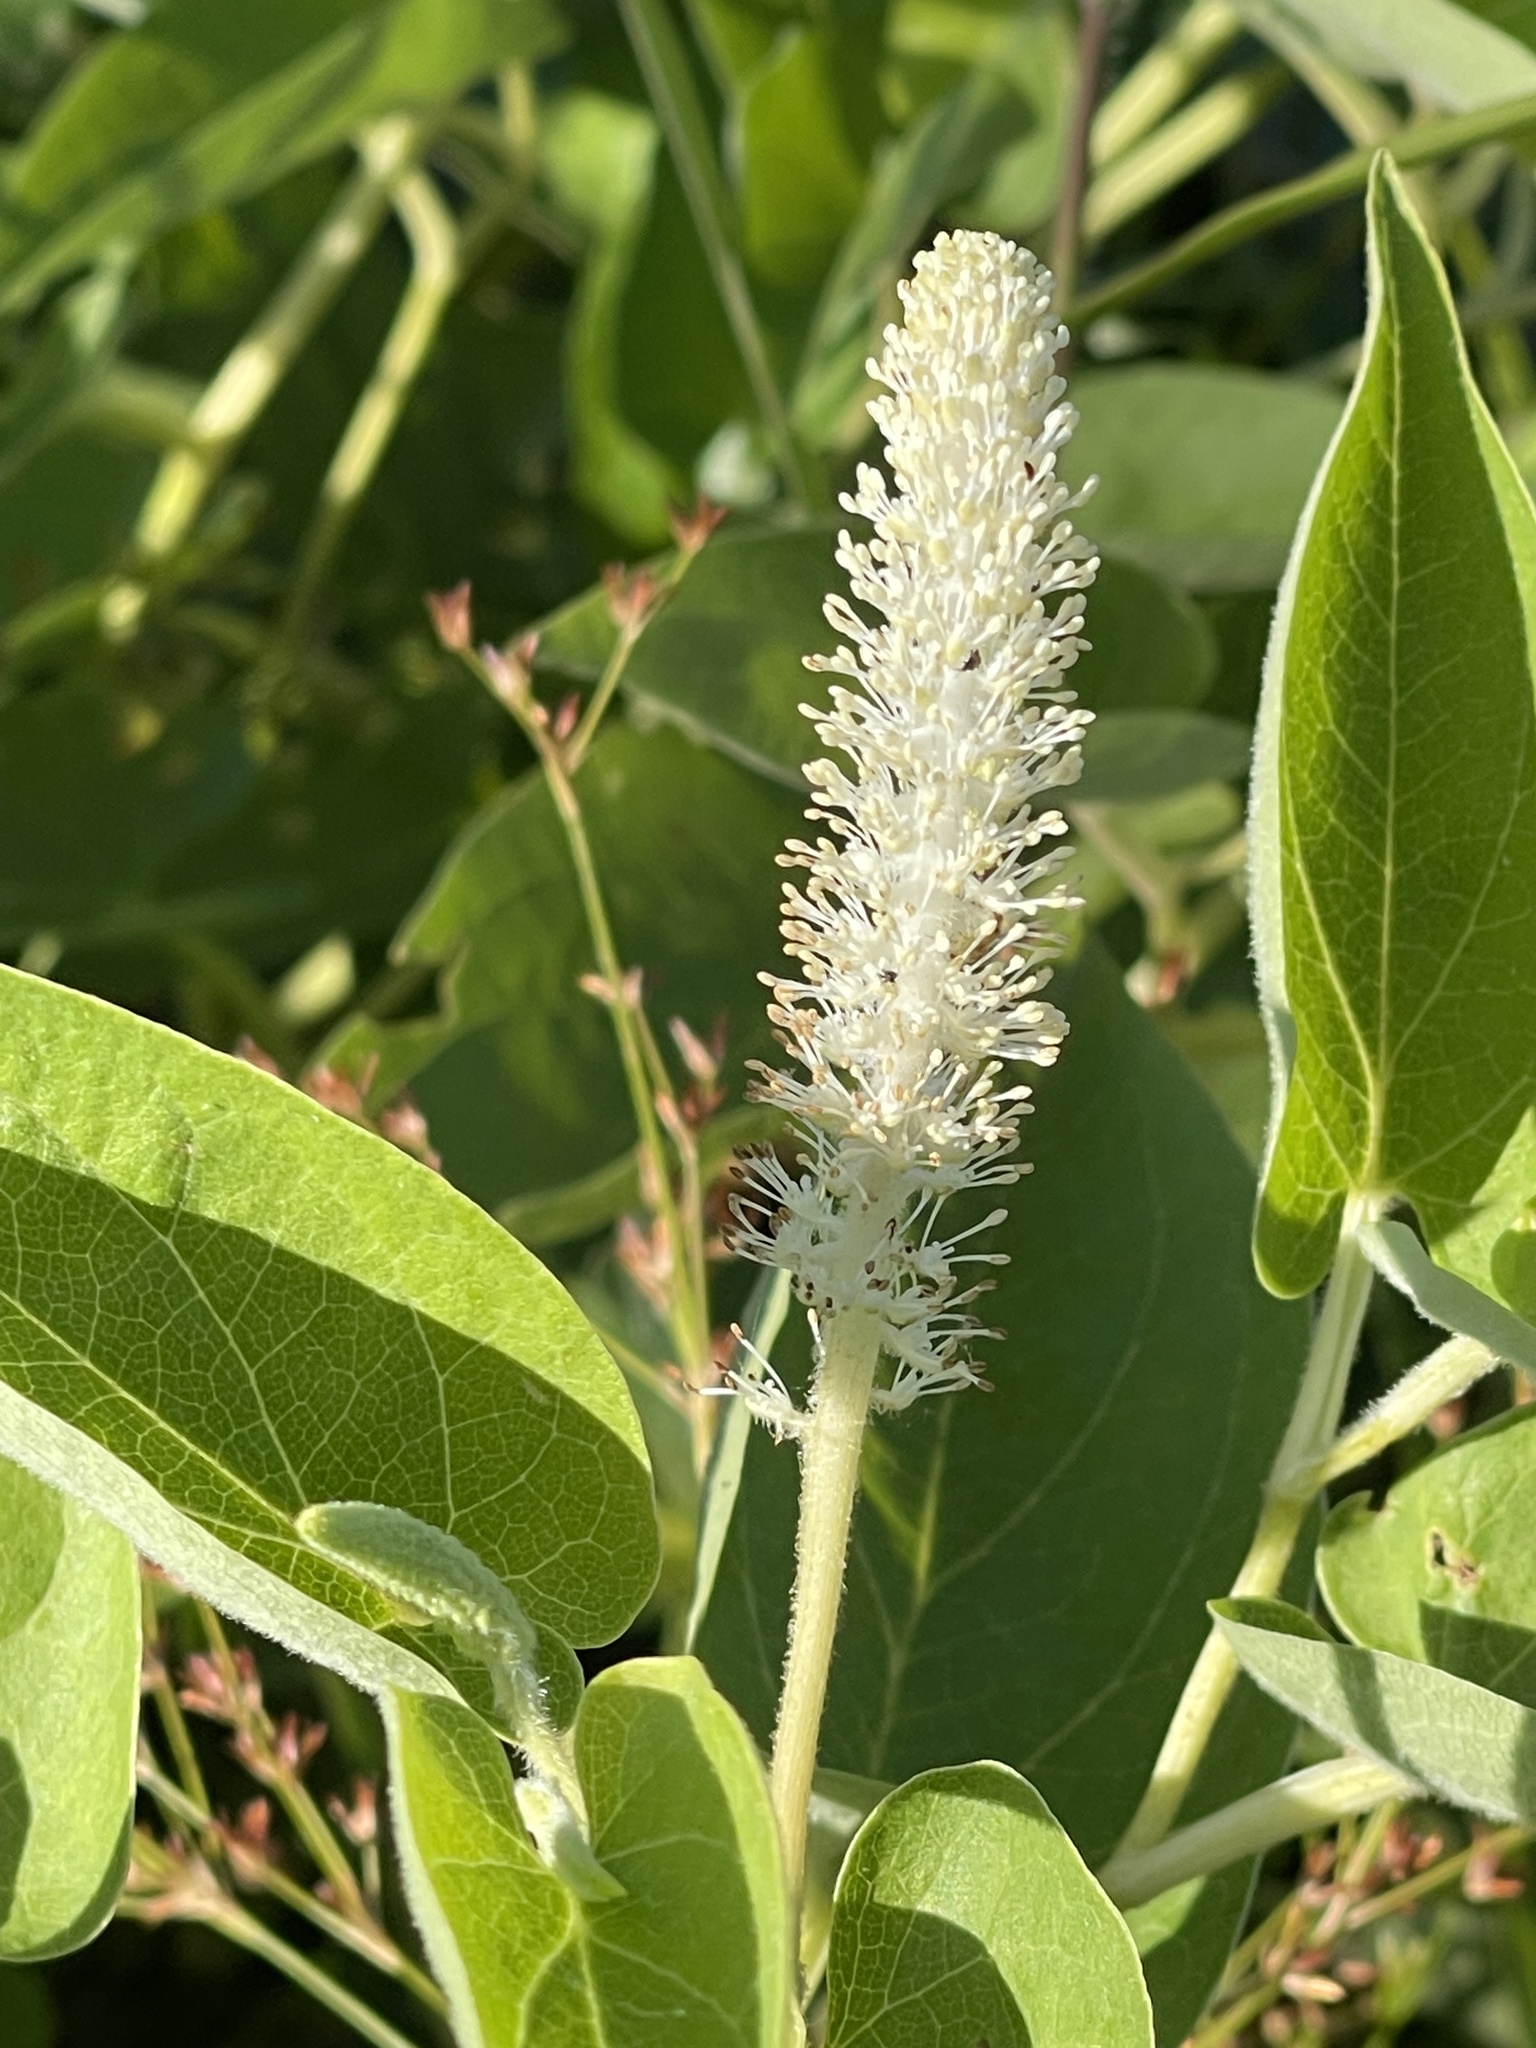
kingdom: Plantae
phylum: Tracheophyta
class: Magnoliopsida
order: Piperales
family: Saururaceae
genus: Saururus
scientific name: Saururus cernuus
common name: Lizard's-tail
